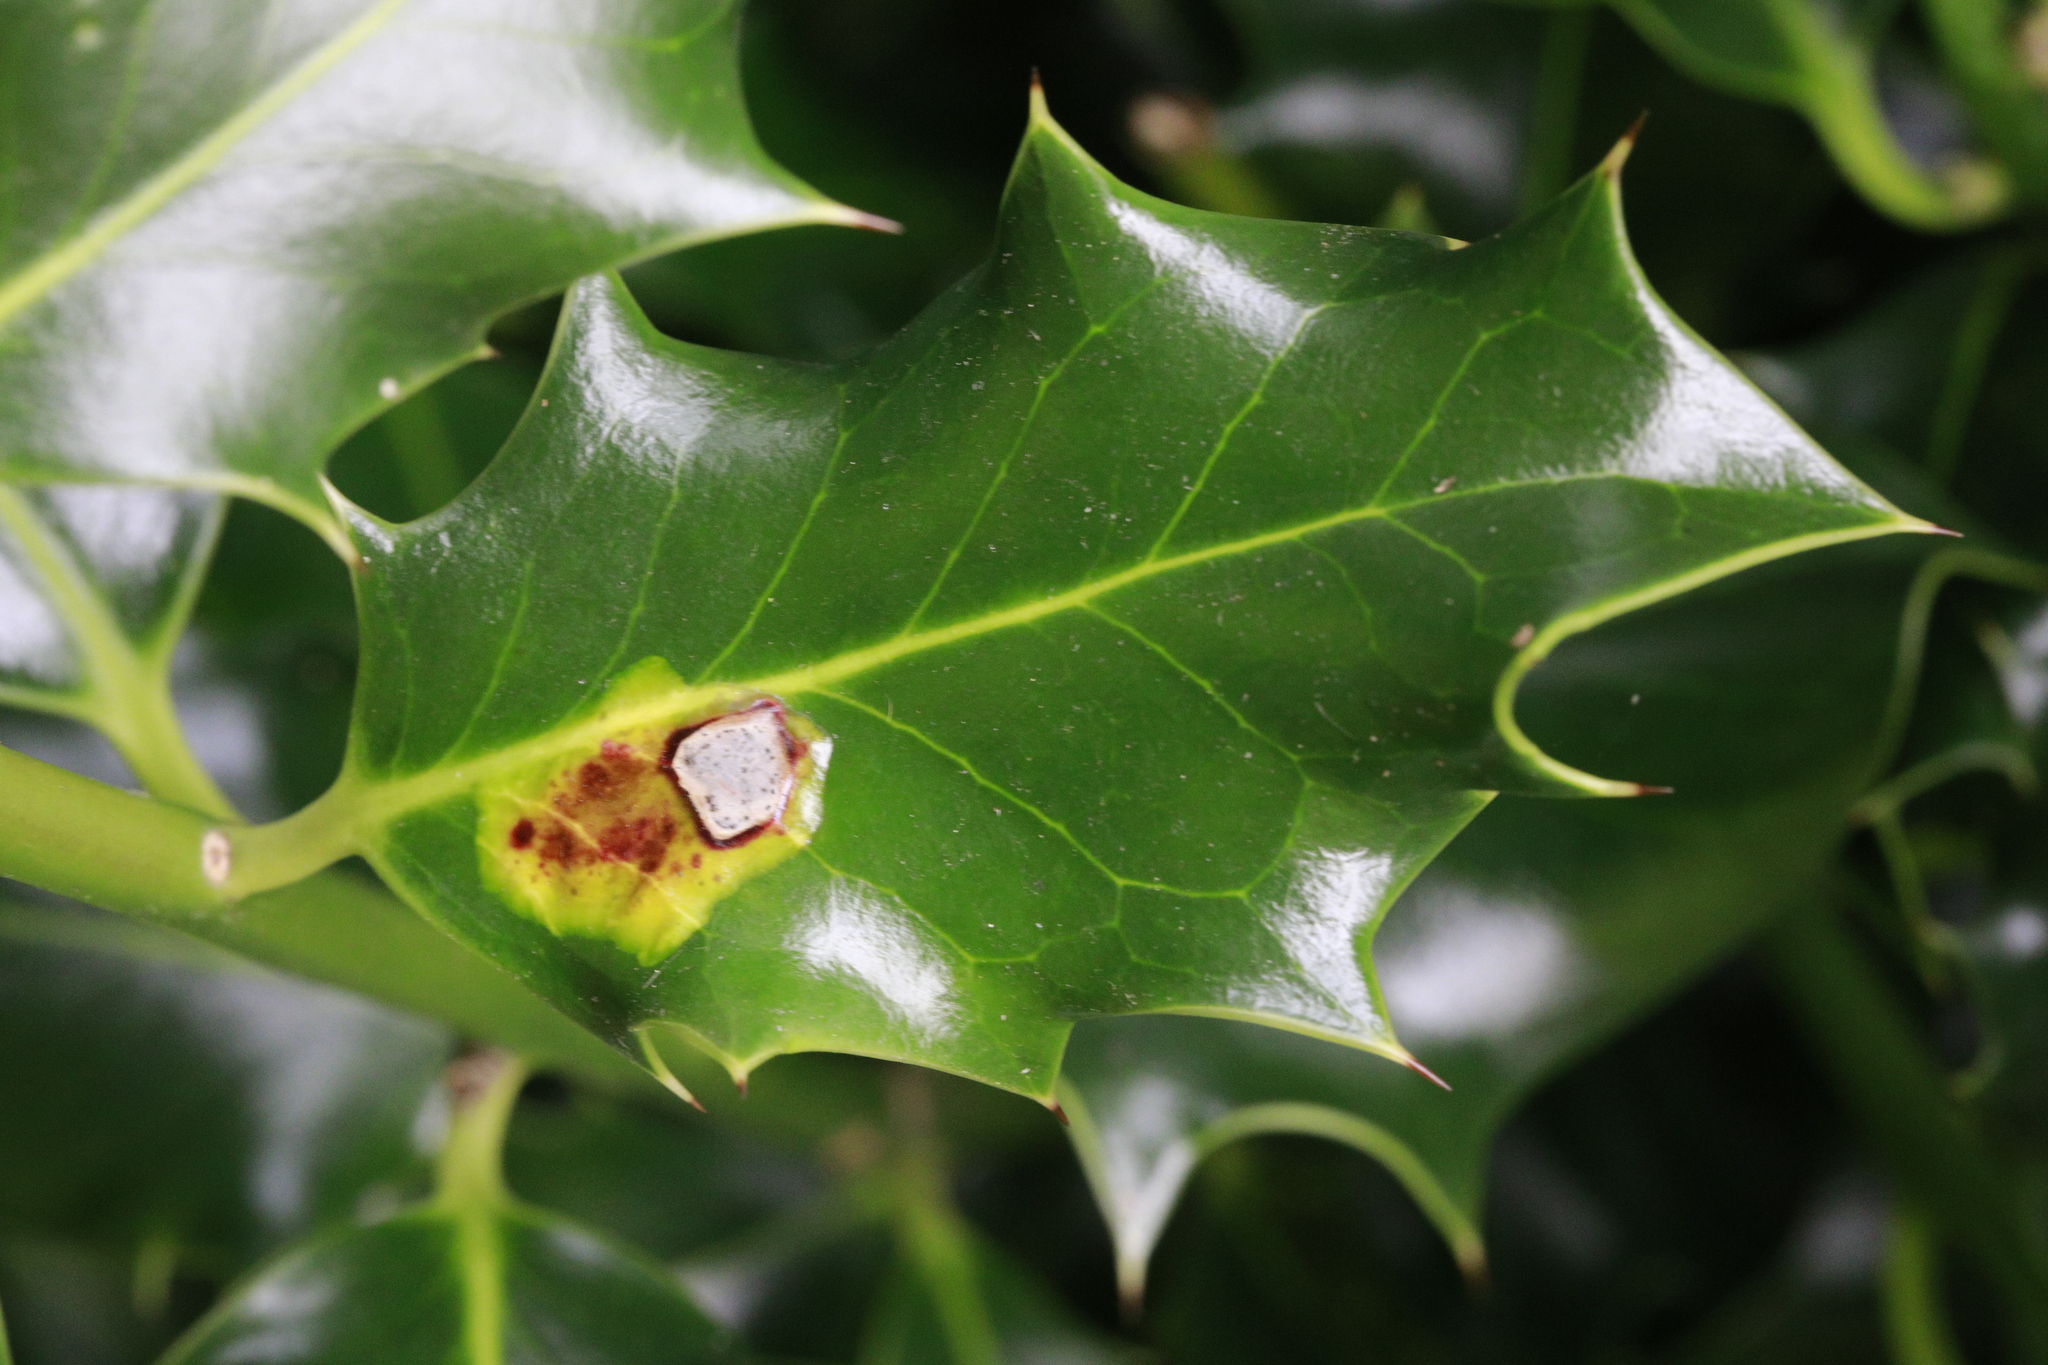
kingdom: Animalia
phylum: Arthropoda
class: Insecta
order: Diptera
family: Agromyzidae
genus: Phytomyza
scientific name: Phytomyza ilicis
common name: Holly leafminer
